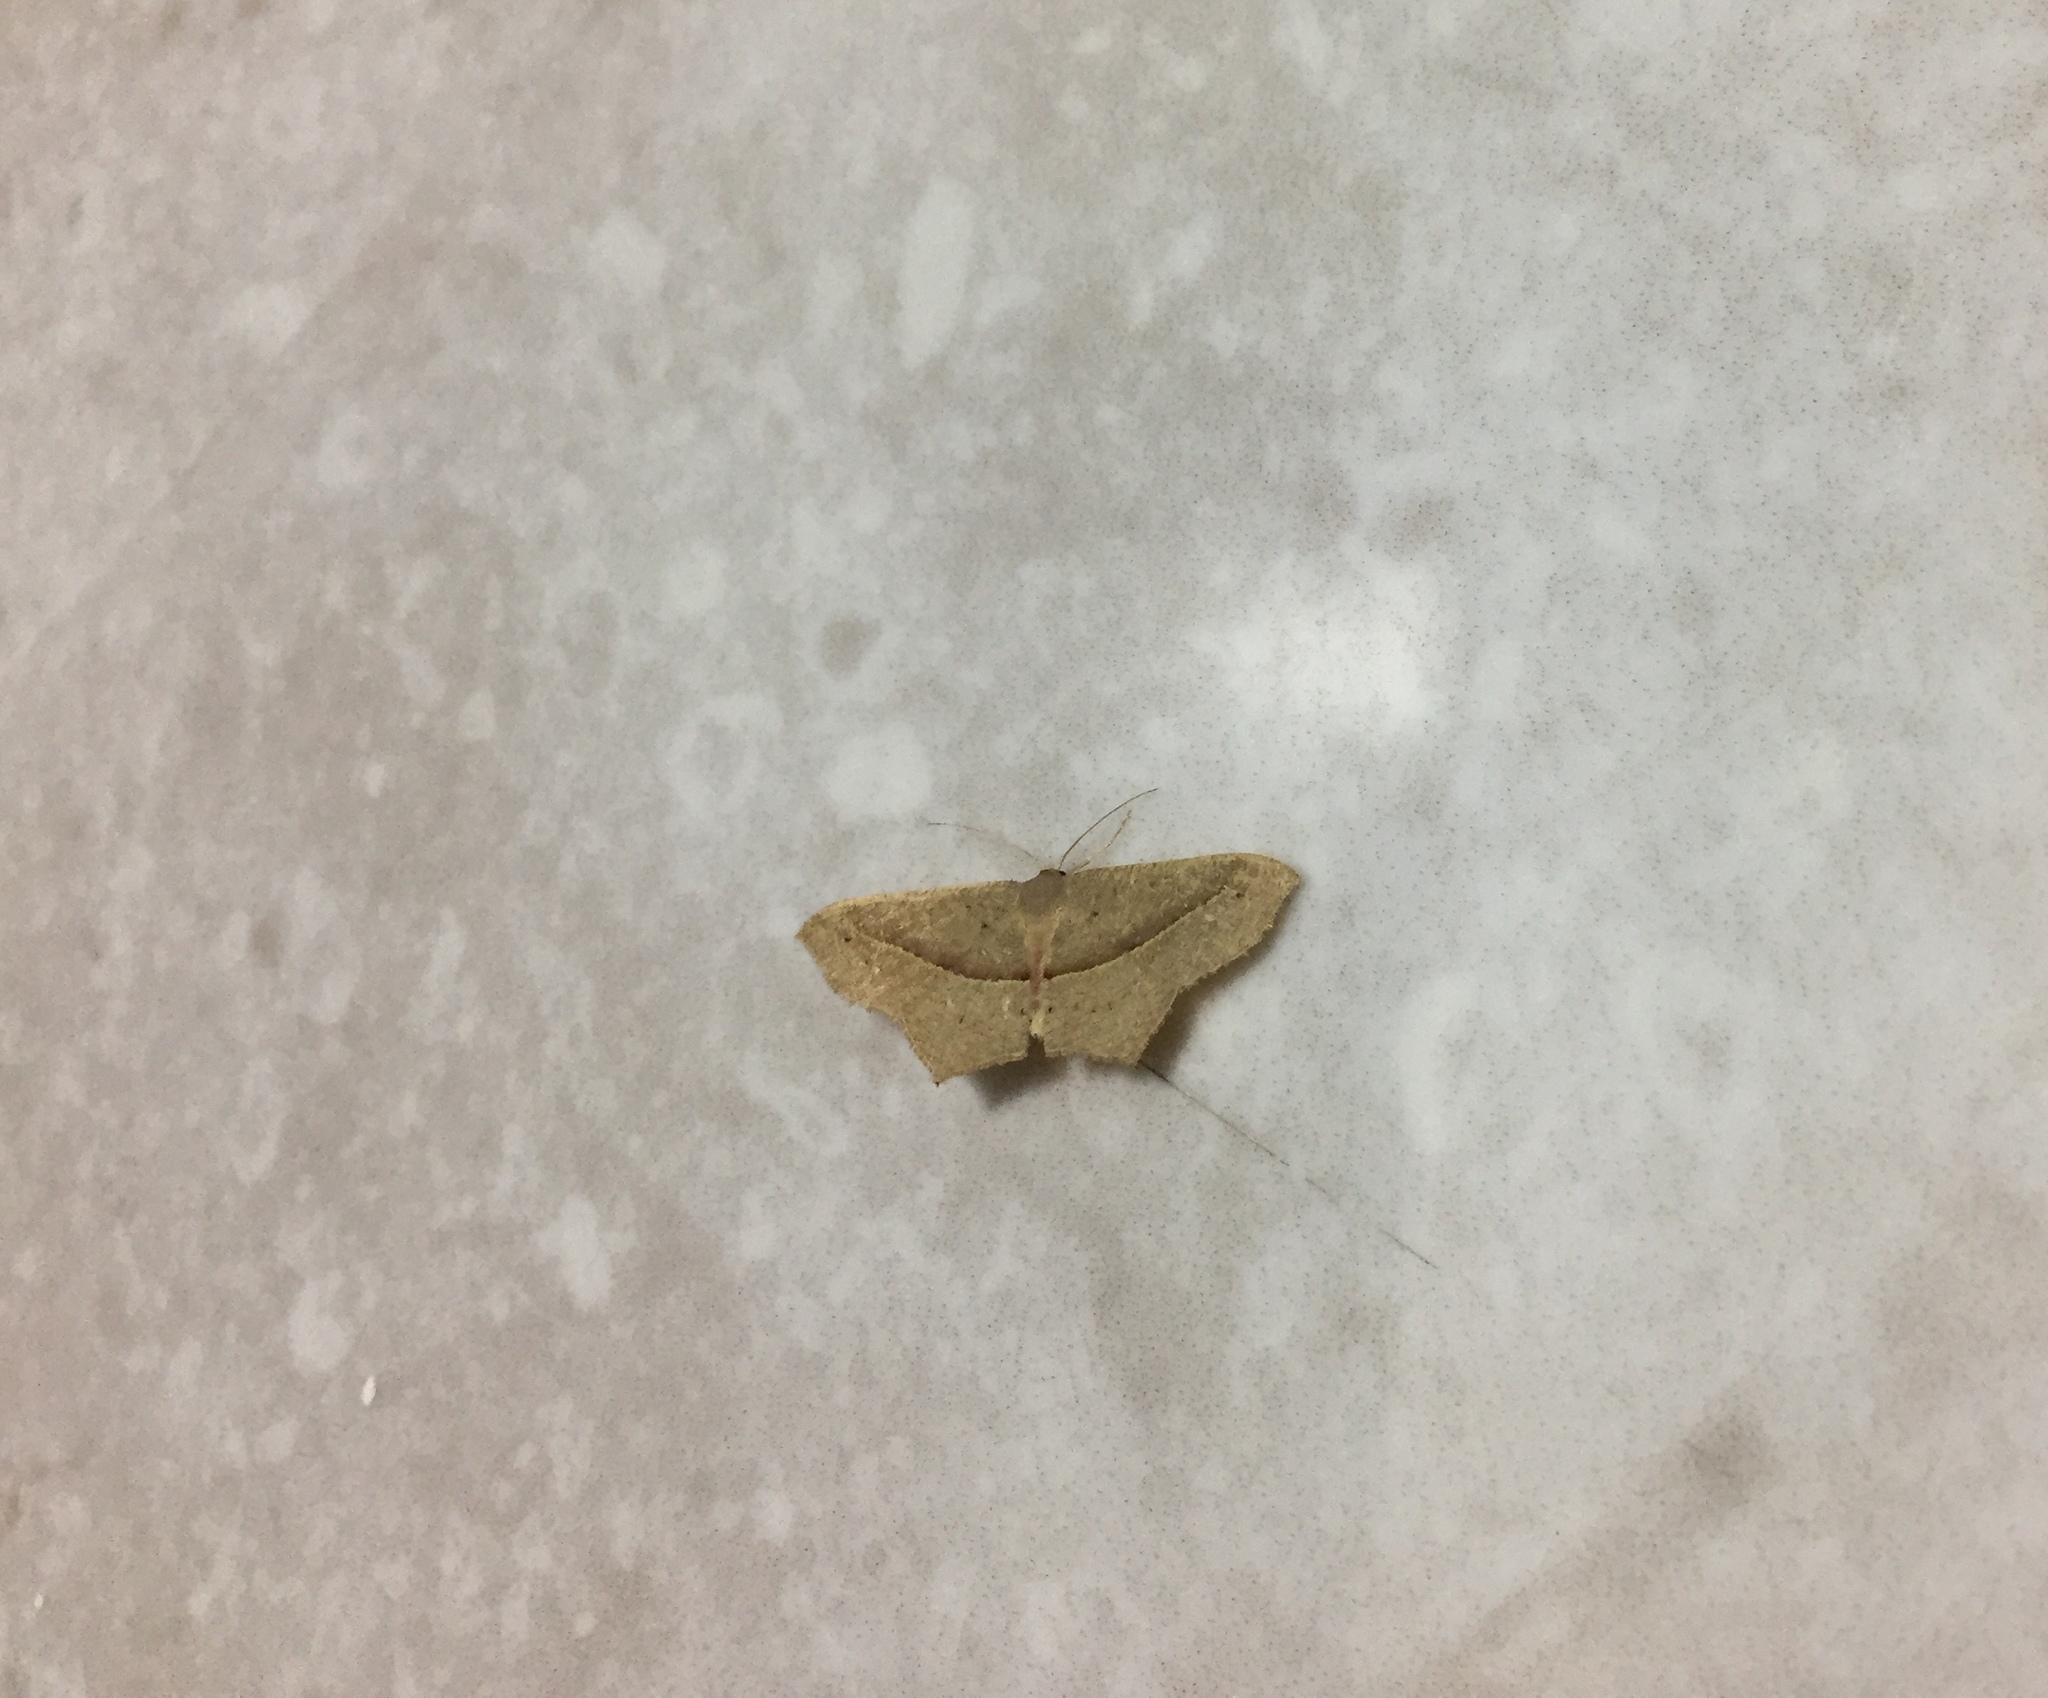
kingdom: Animalia
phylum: Arthropoda
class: Insecta
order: Lepidoptera
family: Geometridae
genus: Traminda
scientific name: Traminda mundissima
